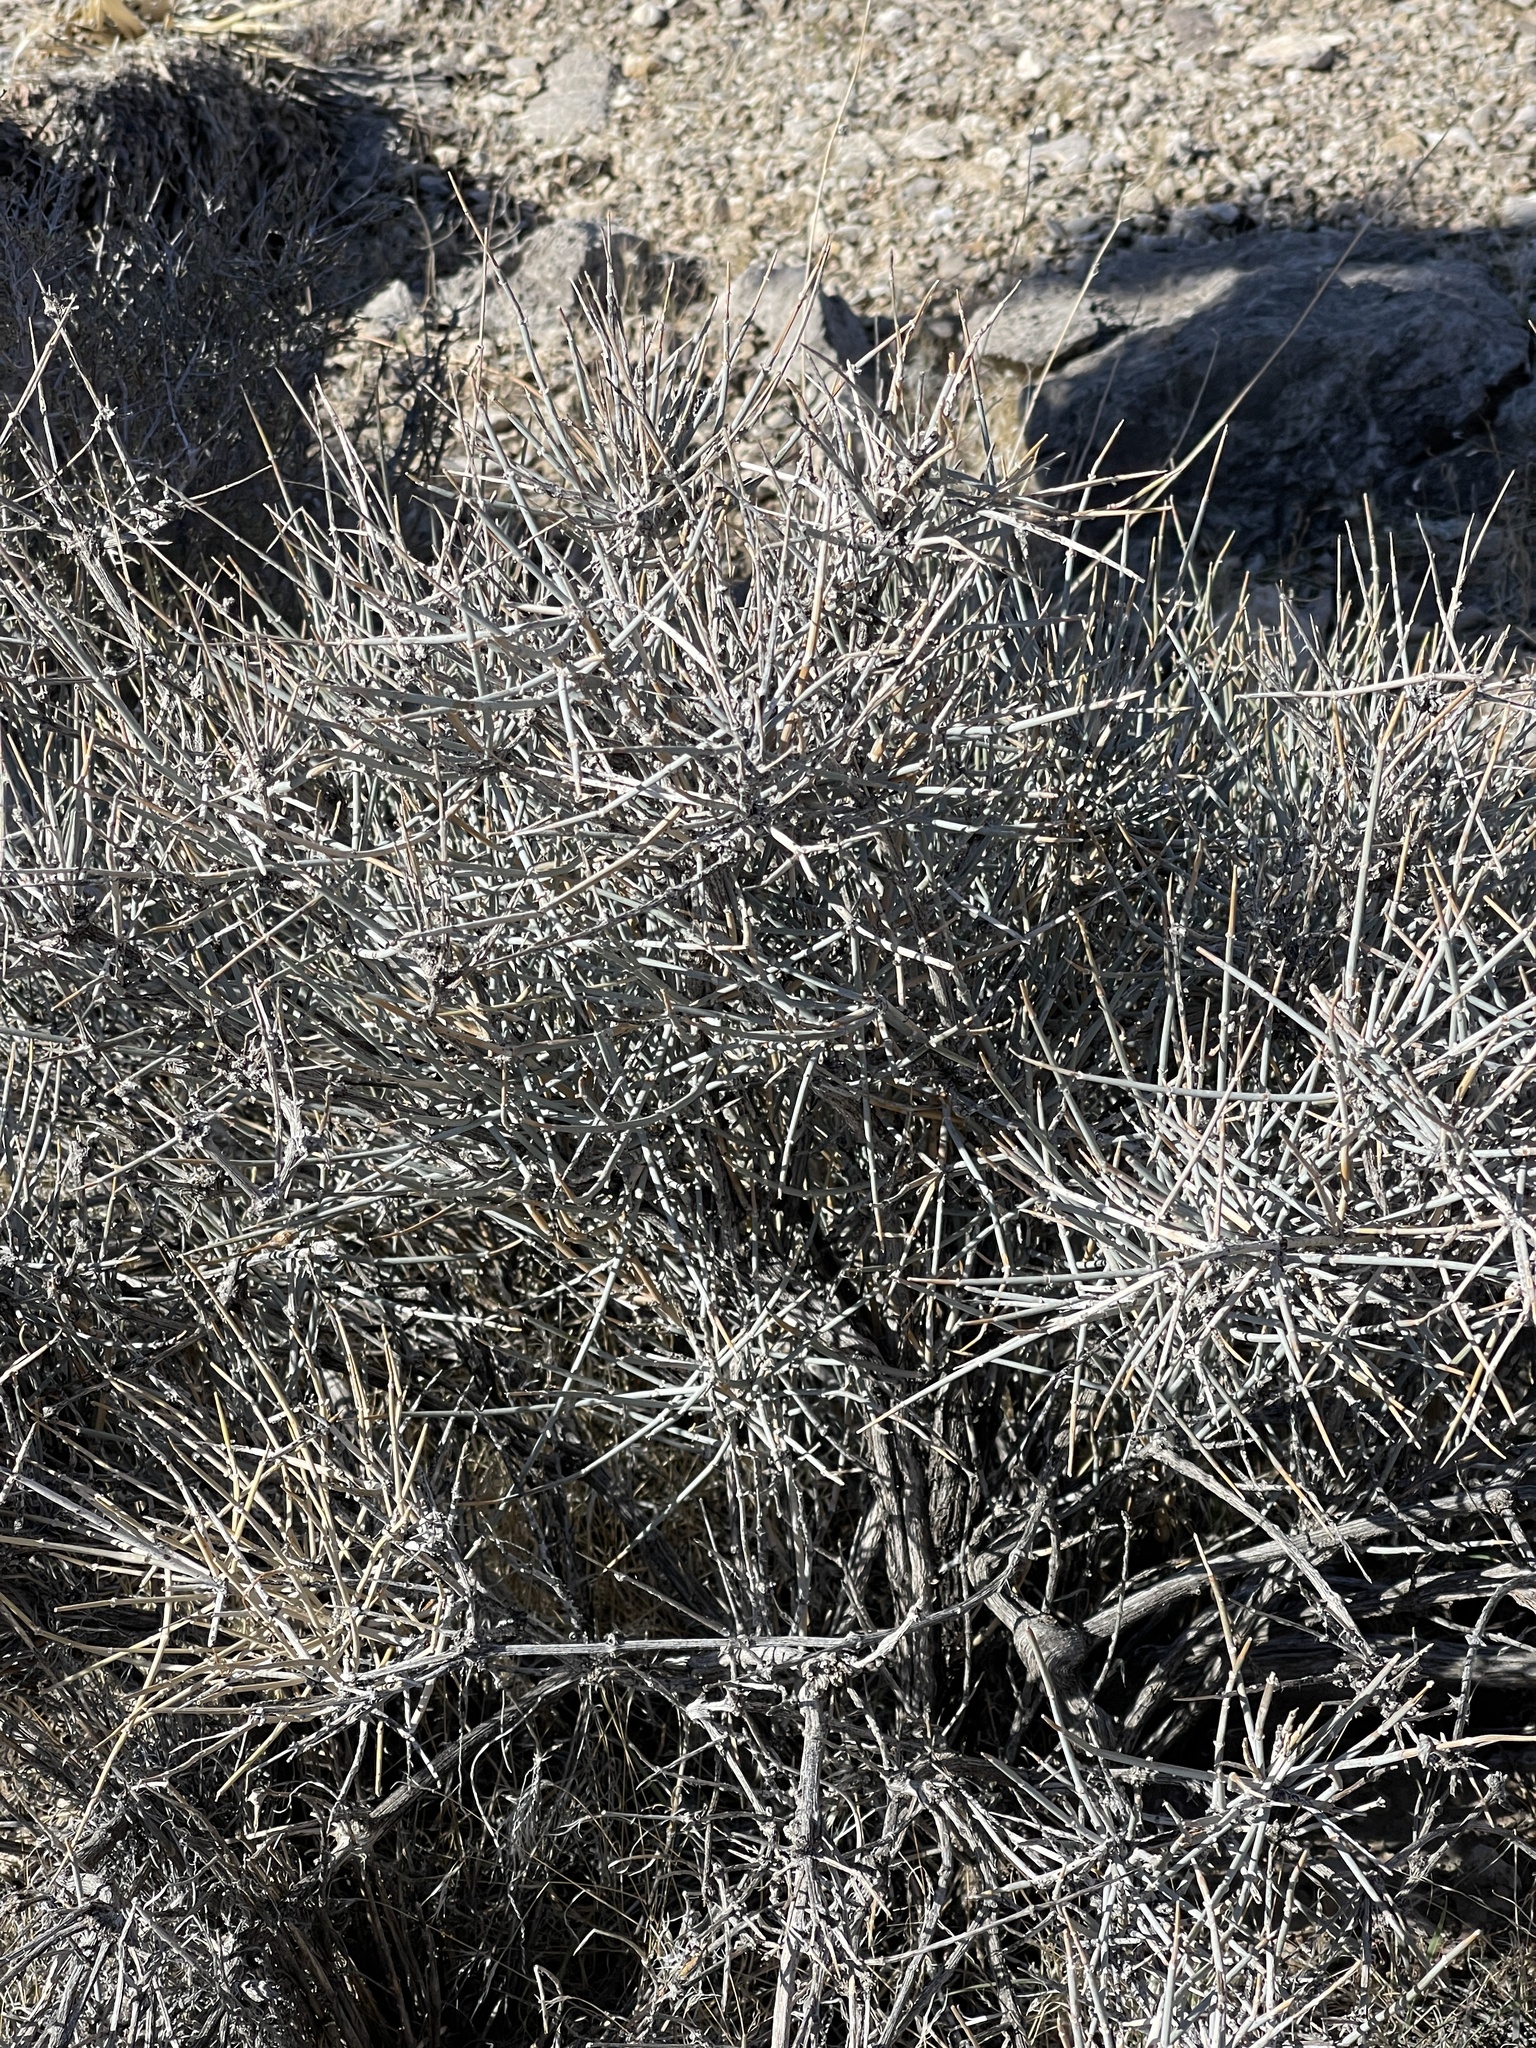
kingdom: Plantae
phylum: Tracheophyta
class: Gnetopsida
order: Ephedrales
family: Ephedraceae
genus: Ephedra
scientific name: Ephedra nevadensis
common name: Gray ephedra
